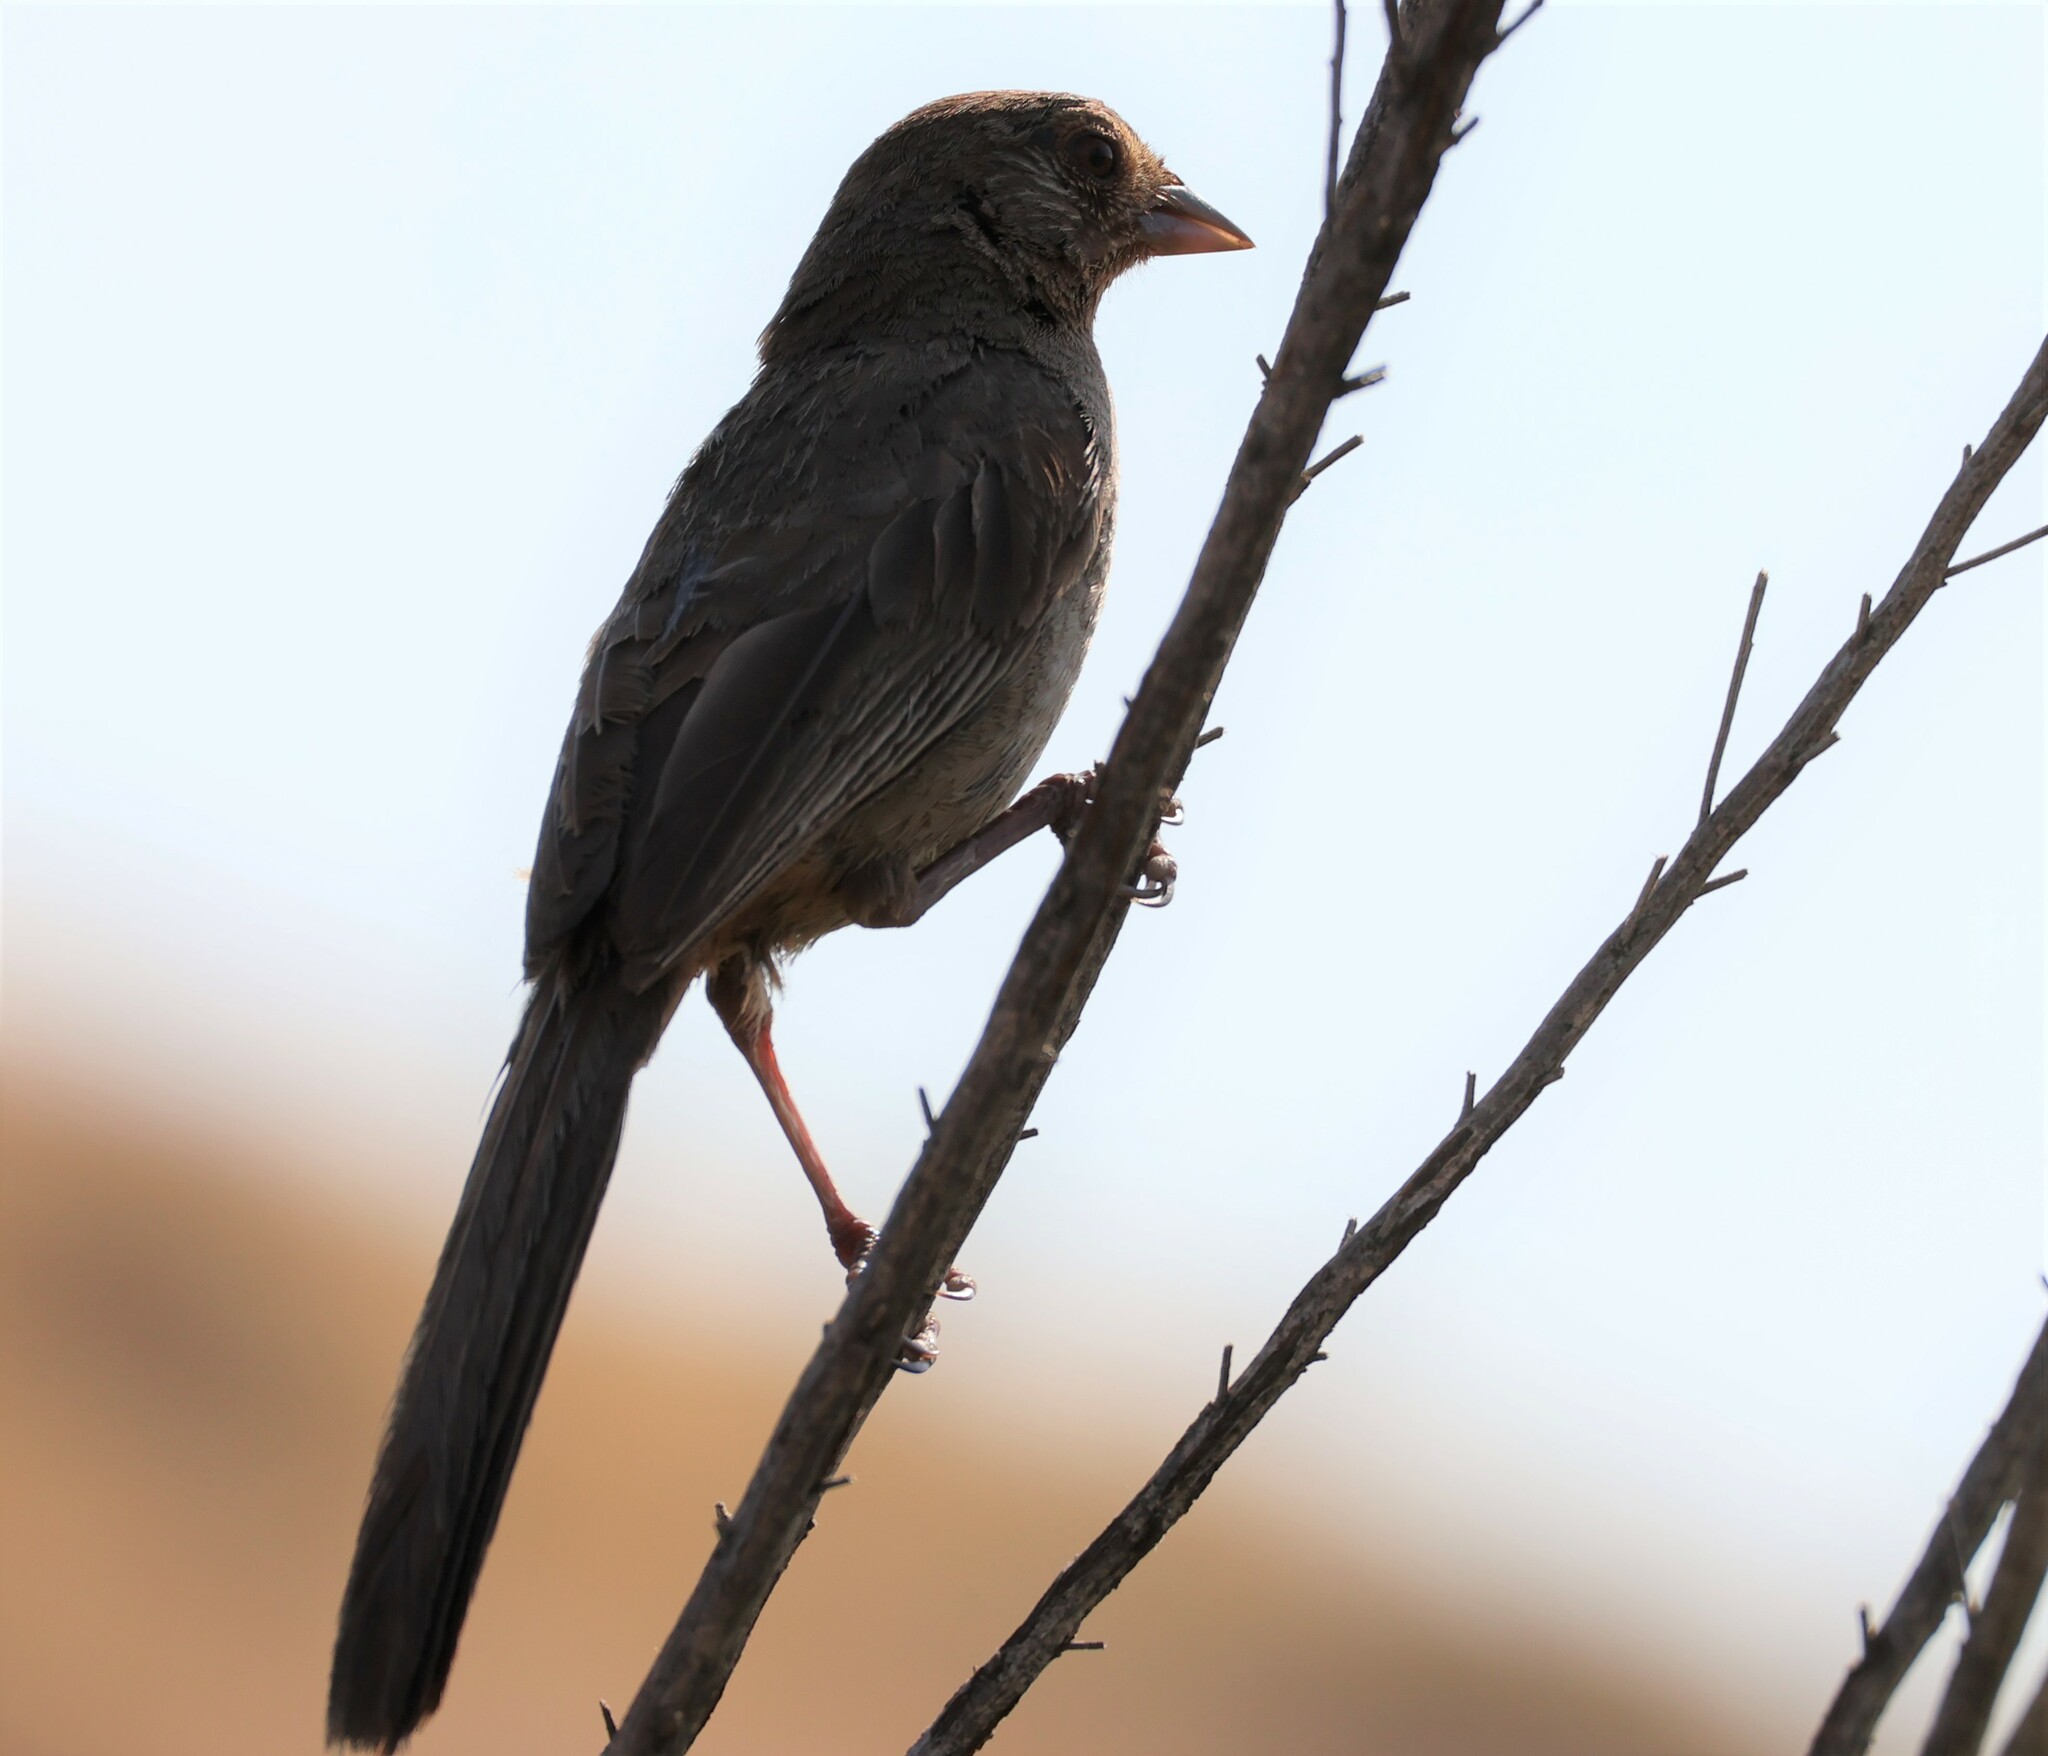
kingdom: Animalia
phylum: Chordata
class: Aves
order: Passeriformes
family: Passerellidae
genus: Melozone
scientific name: Melozone crissalis
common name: California towhee
